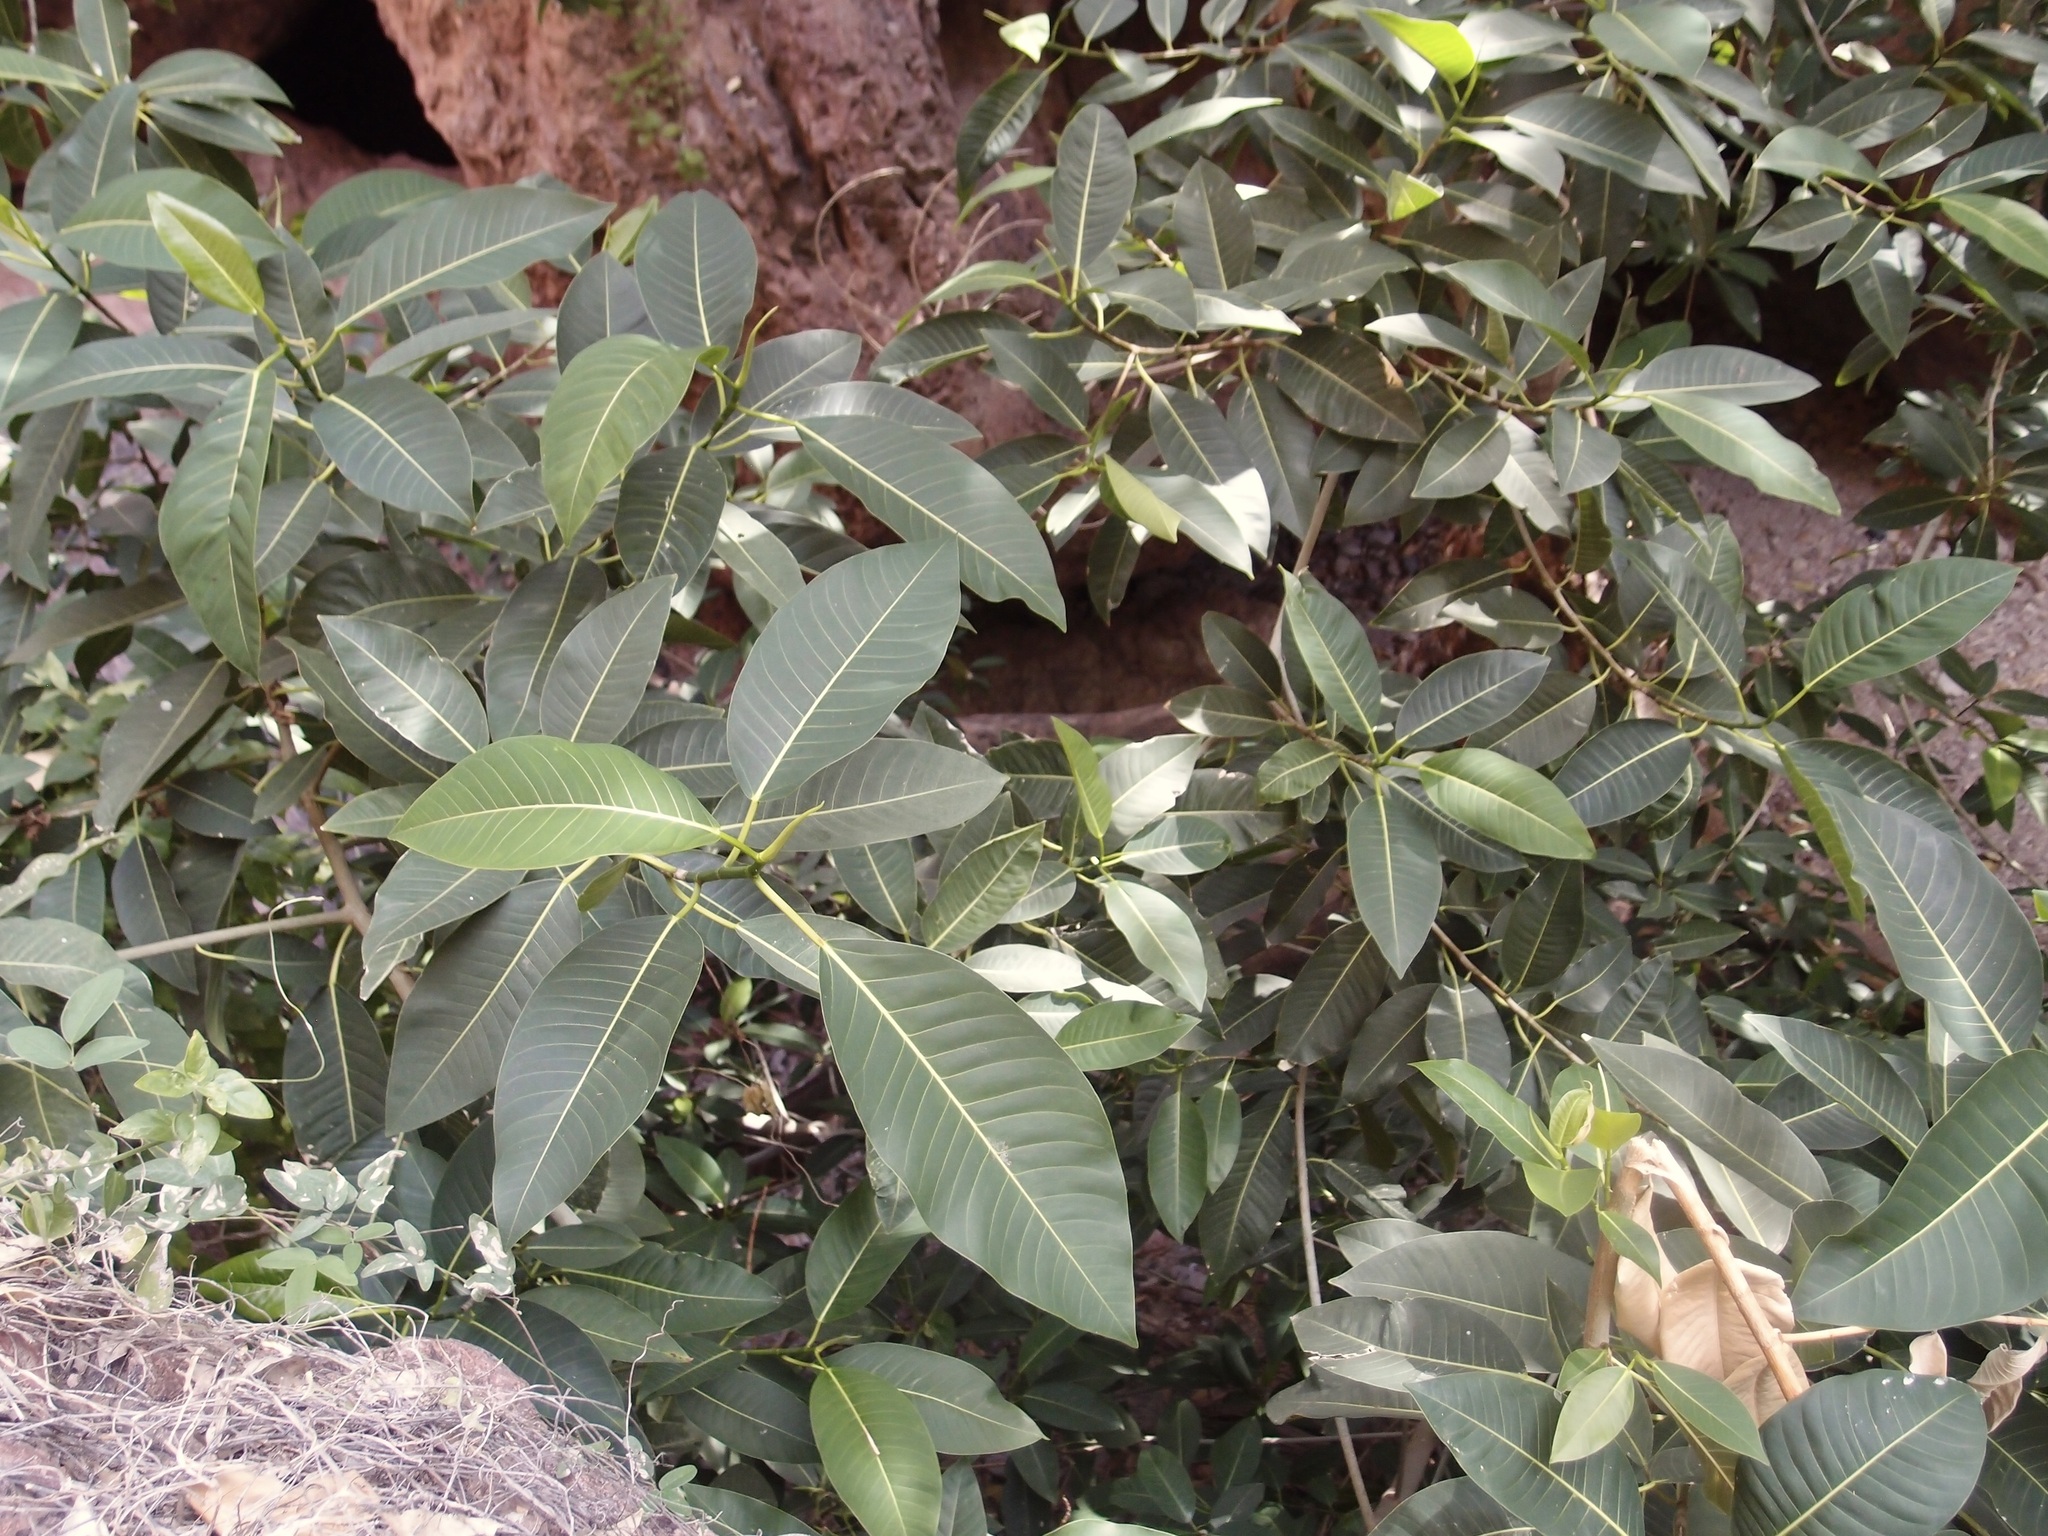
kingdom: Plantae
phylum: Tracheophyta
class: Magnoliopsida
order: Rosales
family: Moraceae
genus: Ficus
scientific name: Ficus insipida
